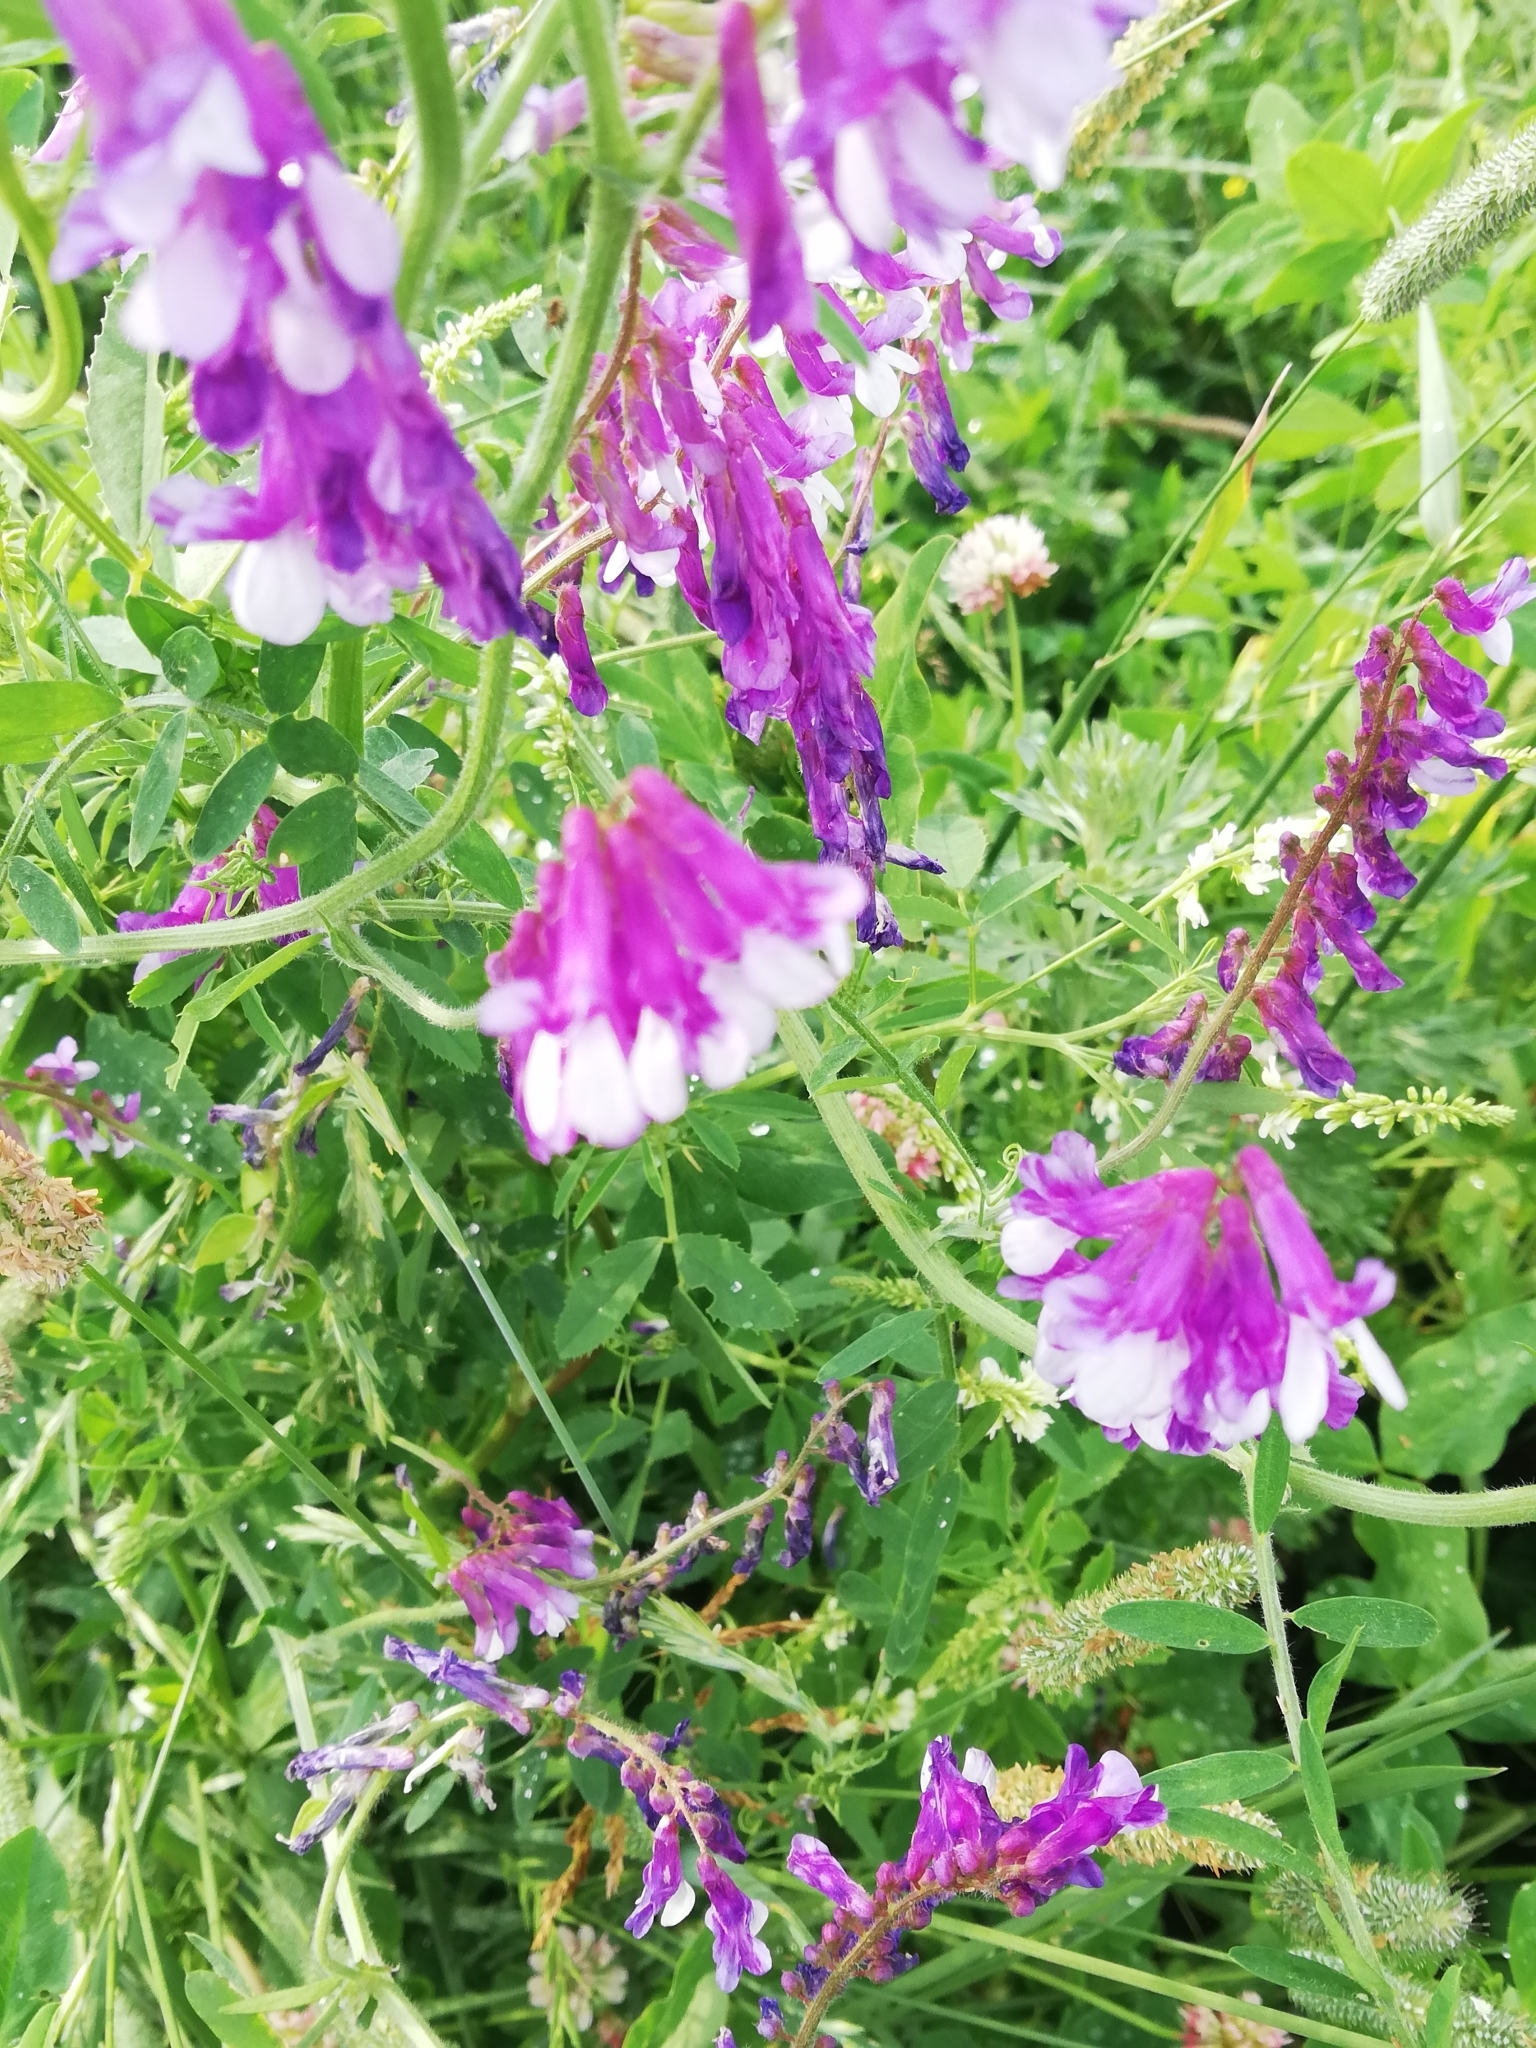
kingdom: Plantae
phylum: Tracheophyta
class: Magnoliopsida
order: Fabales
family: Fabaceae
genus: Vicia
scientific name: Vicia villosa
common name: Fodder vetch
